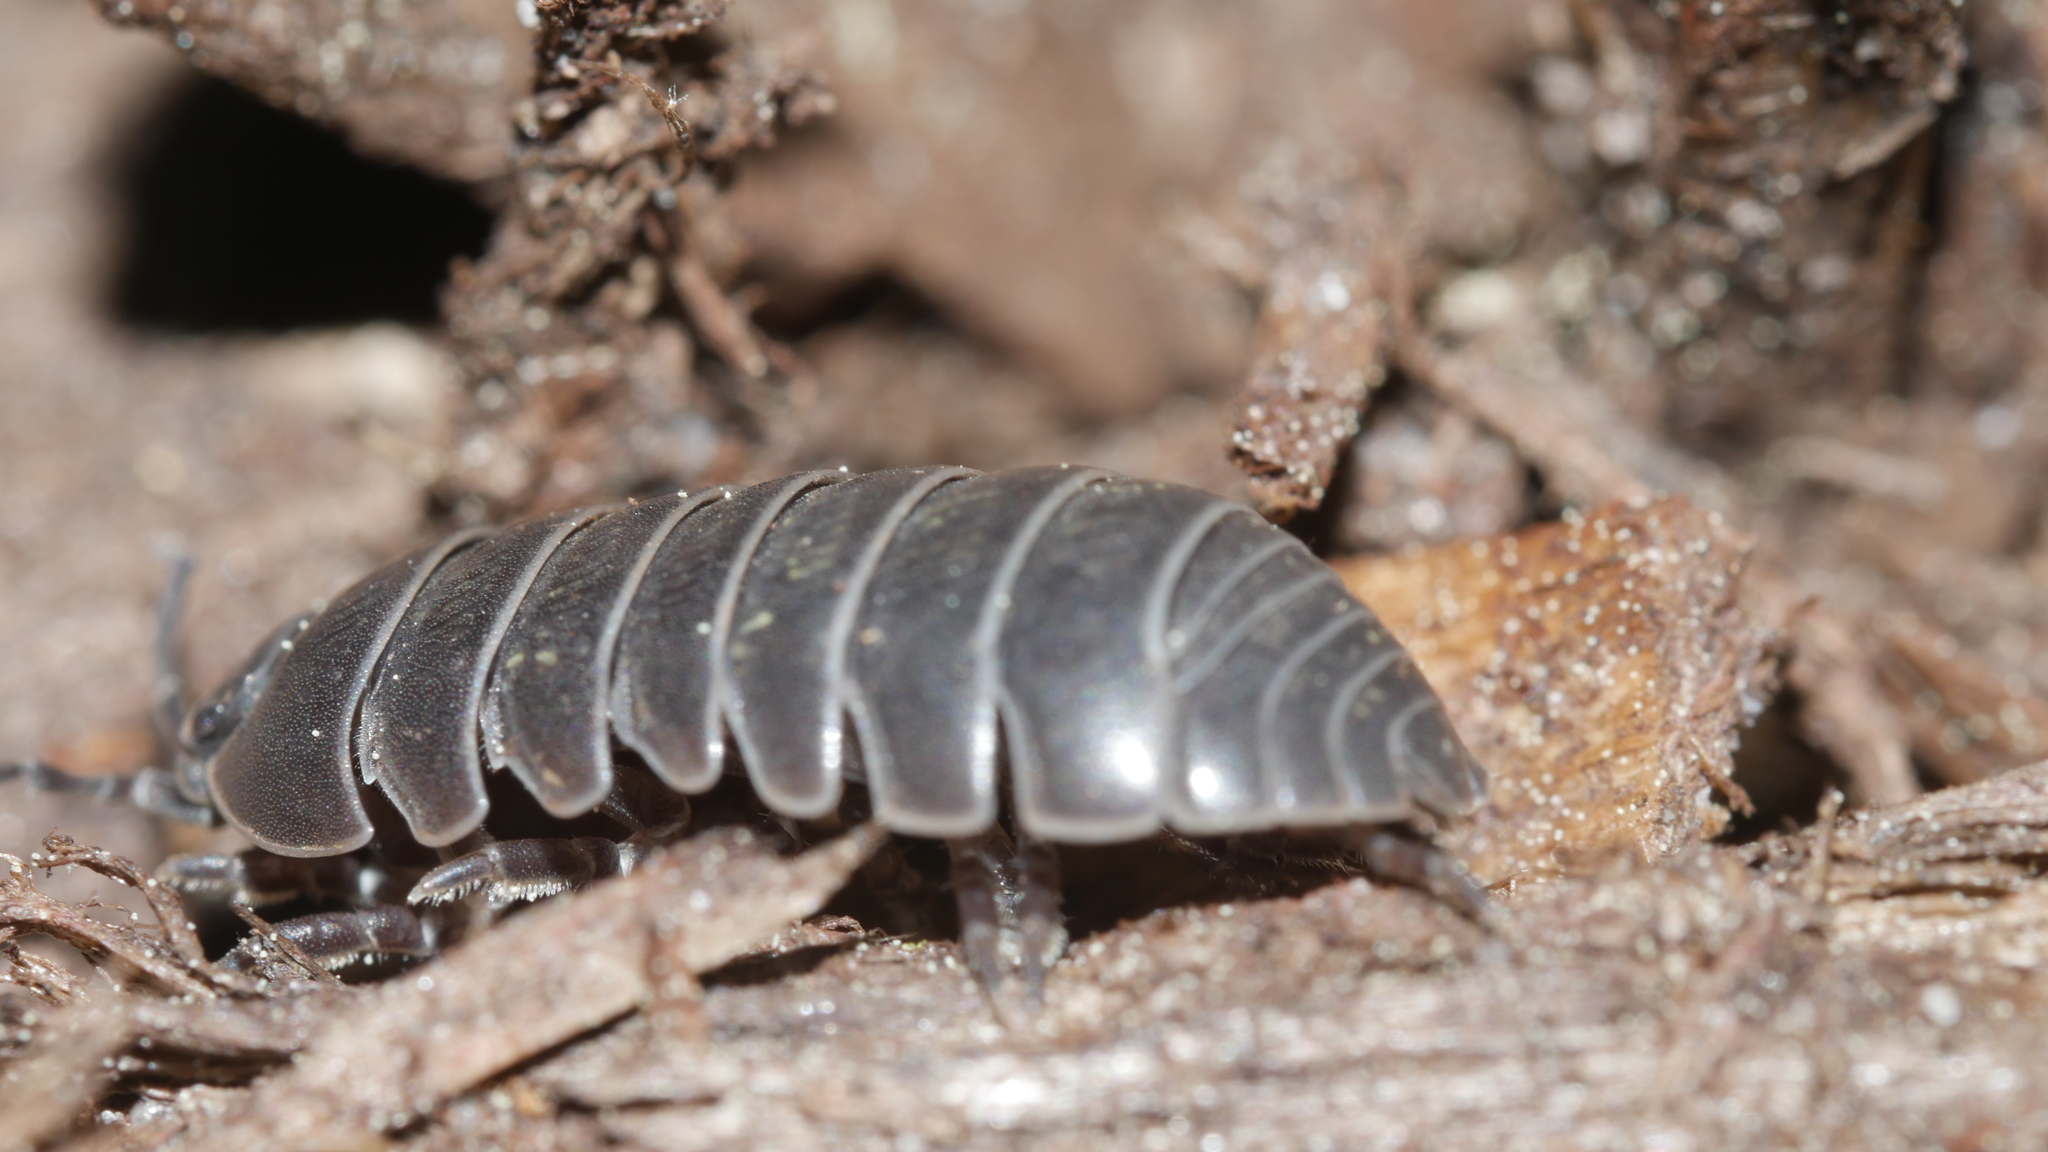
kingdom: Animalia
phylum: Arthropoda
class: Malacostraca
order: Isopoda
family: Armadillidiidae
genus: Armadillidium
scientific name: Armadillidium vulgare
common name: Common pill woodlouse
